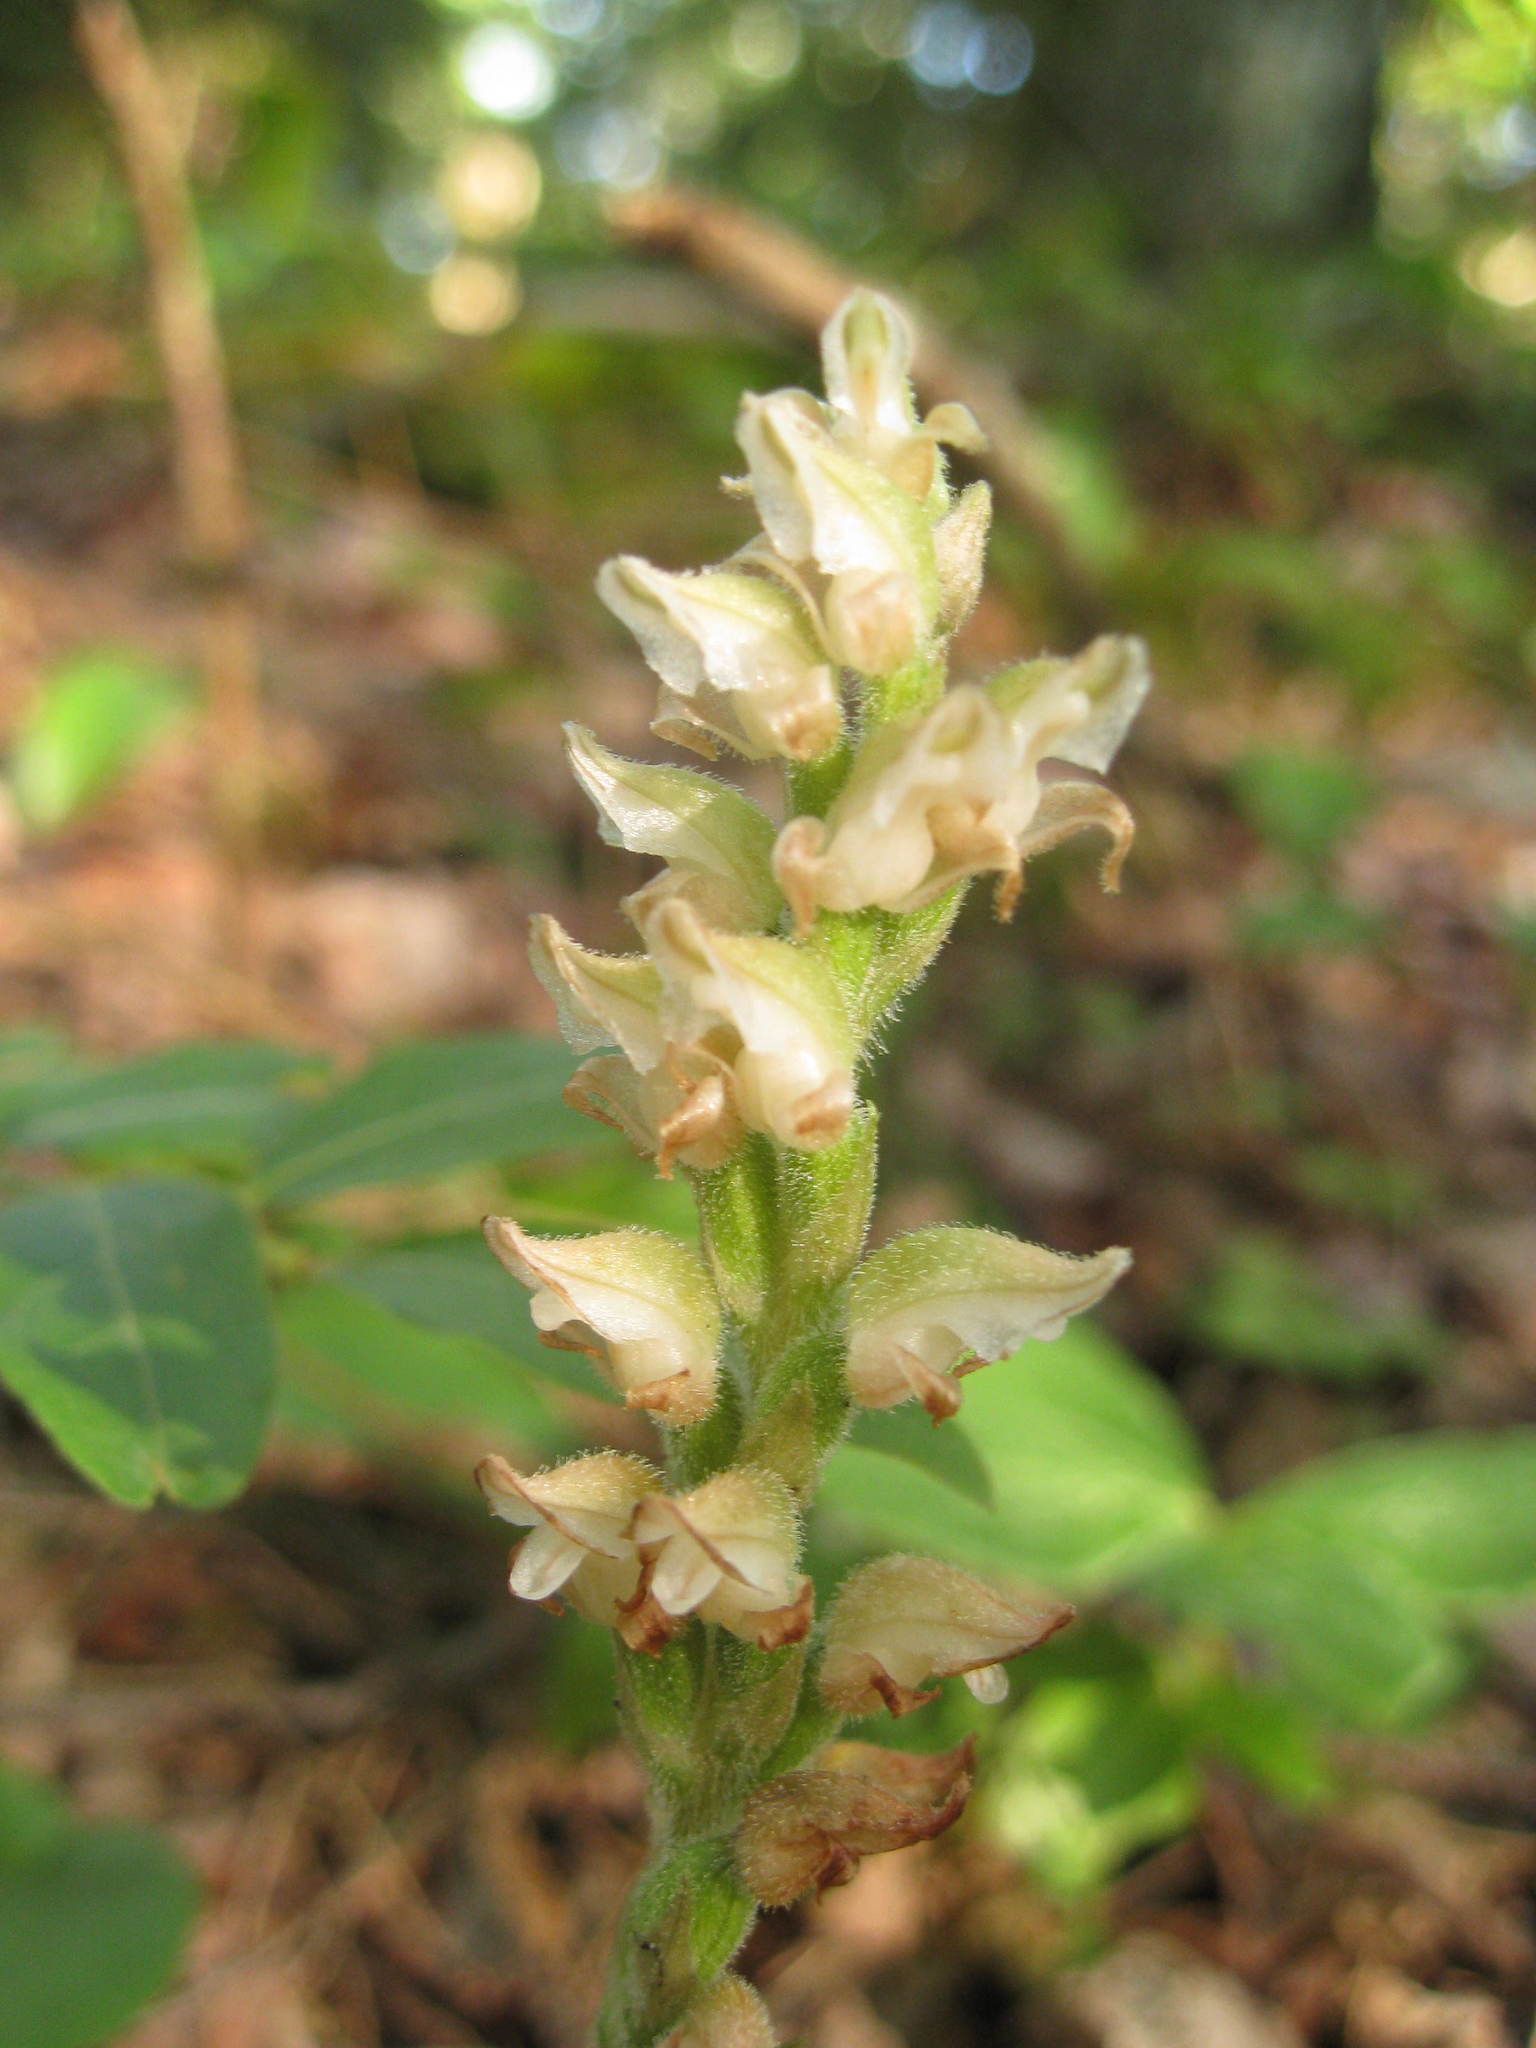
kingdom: Plantae
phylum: Tracheophyta
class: Liliopsida
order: Asparagales
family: Orchidaceae
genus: Goodyera
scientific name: Goodyera oblongifolia
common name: Giant rattlesnake-plantain
